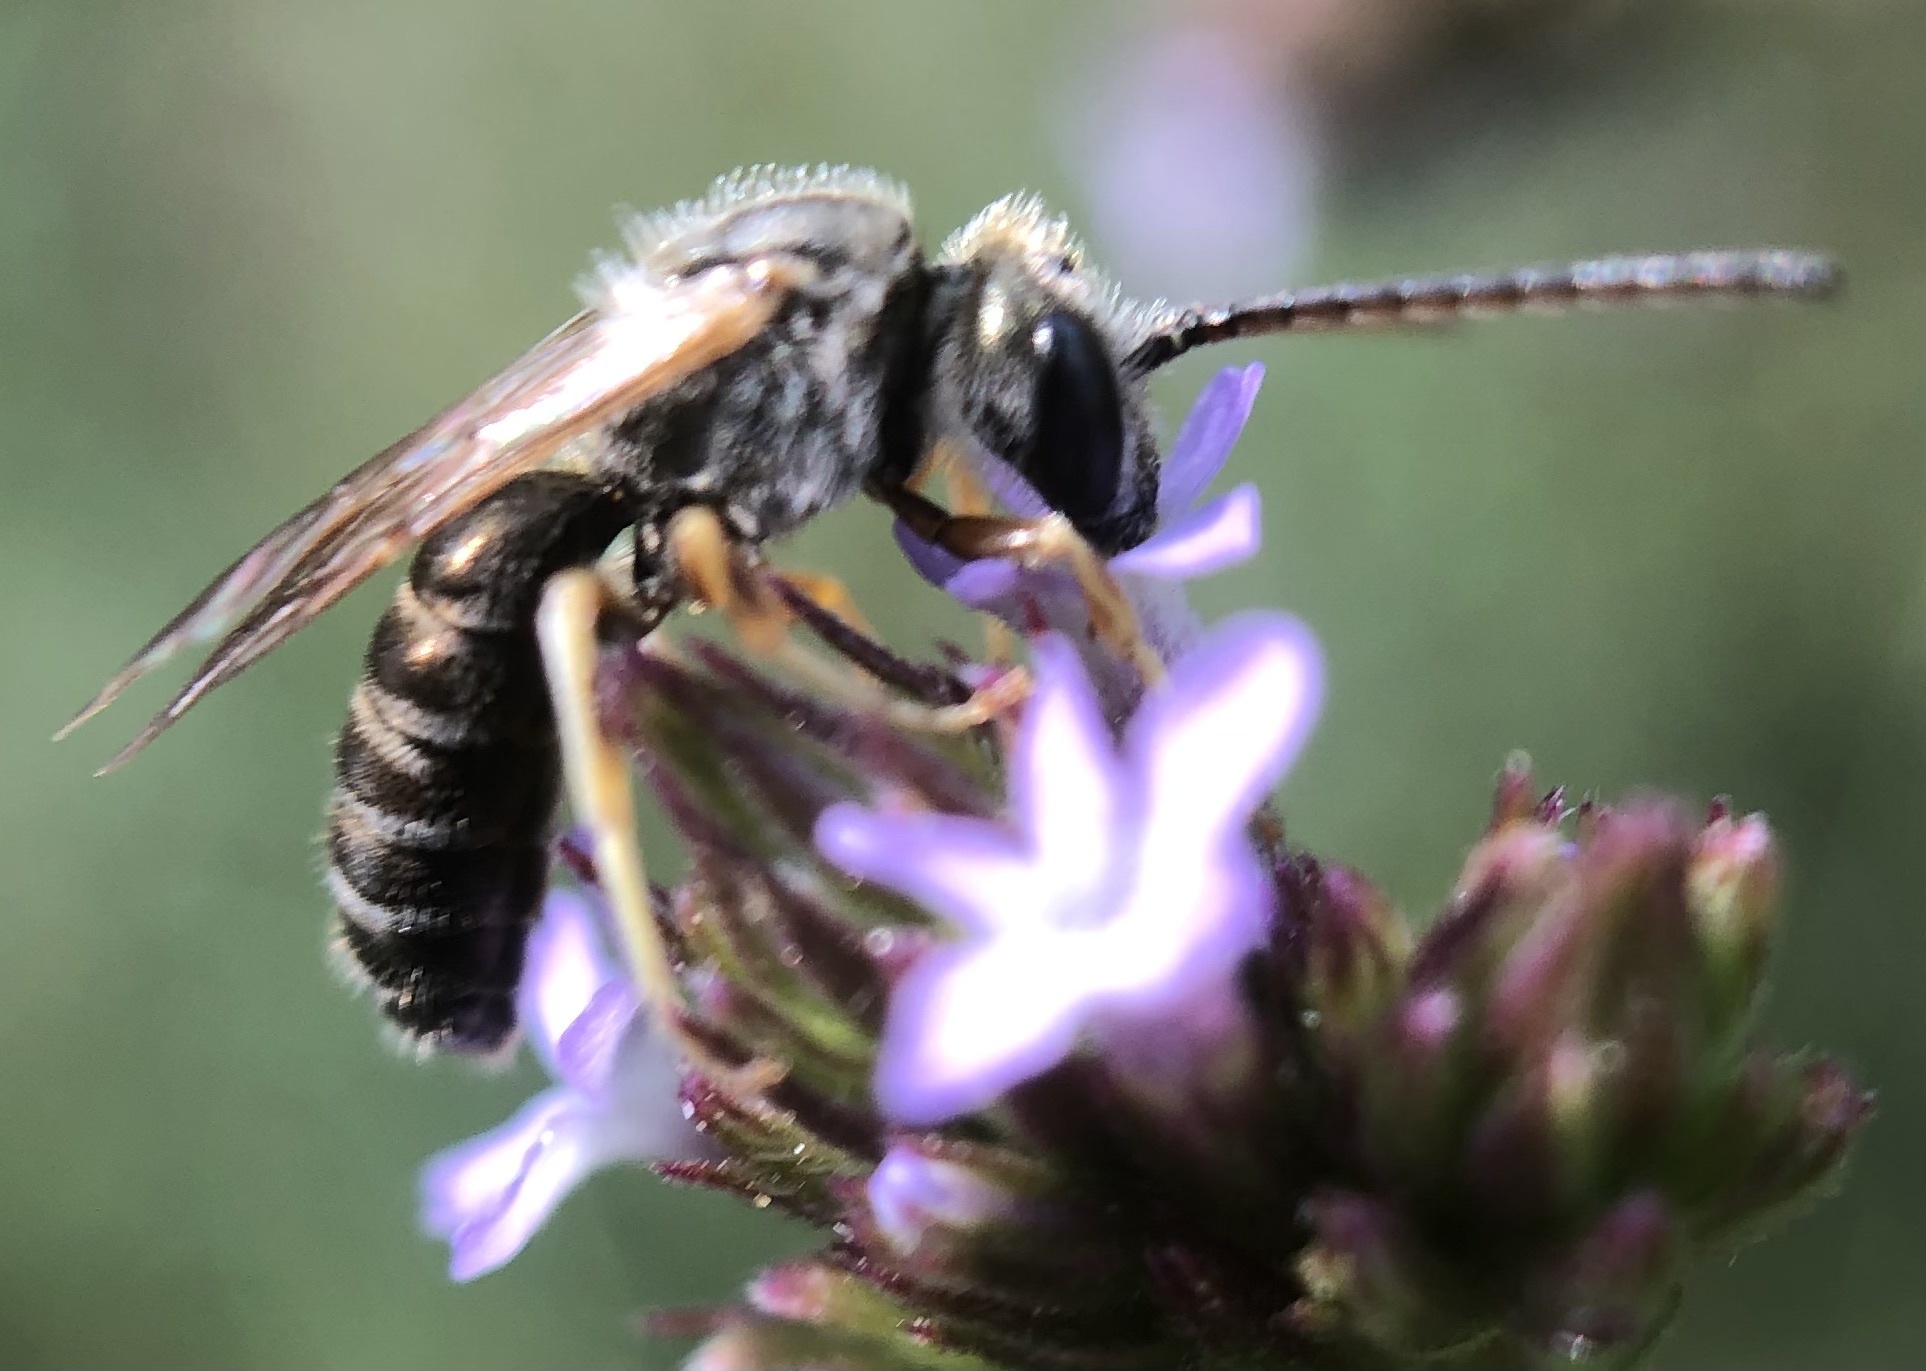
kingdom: Animalia
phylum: Arthropoda
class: Insecta
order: Hymenoptera
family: Halictidae
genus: Halictus
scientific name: Halictus confusus
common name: Southern bronze furrow bee
